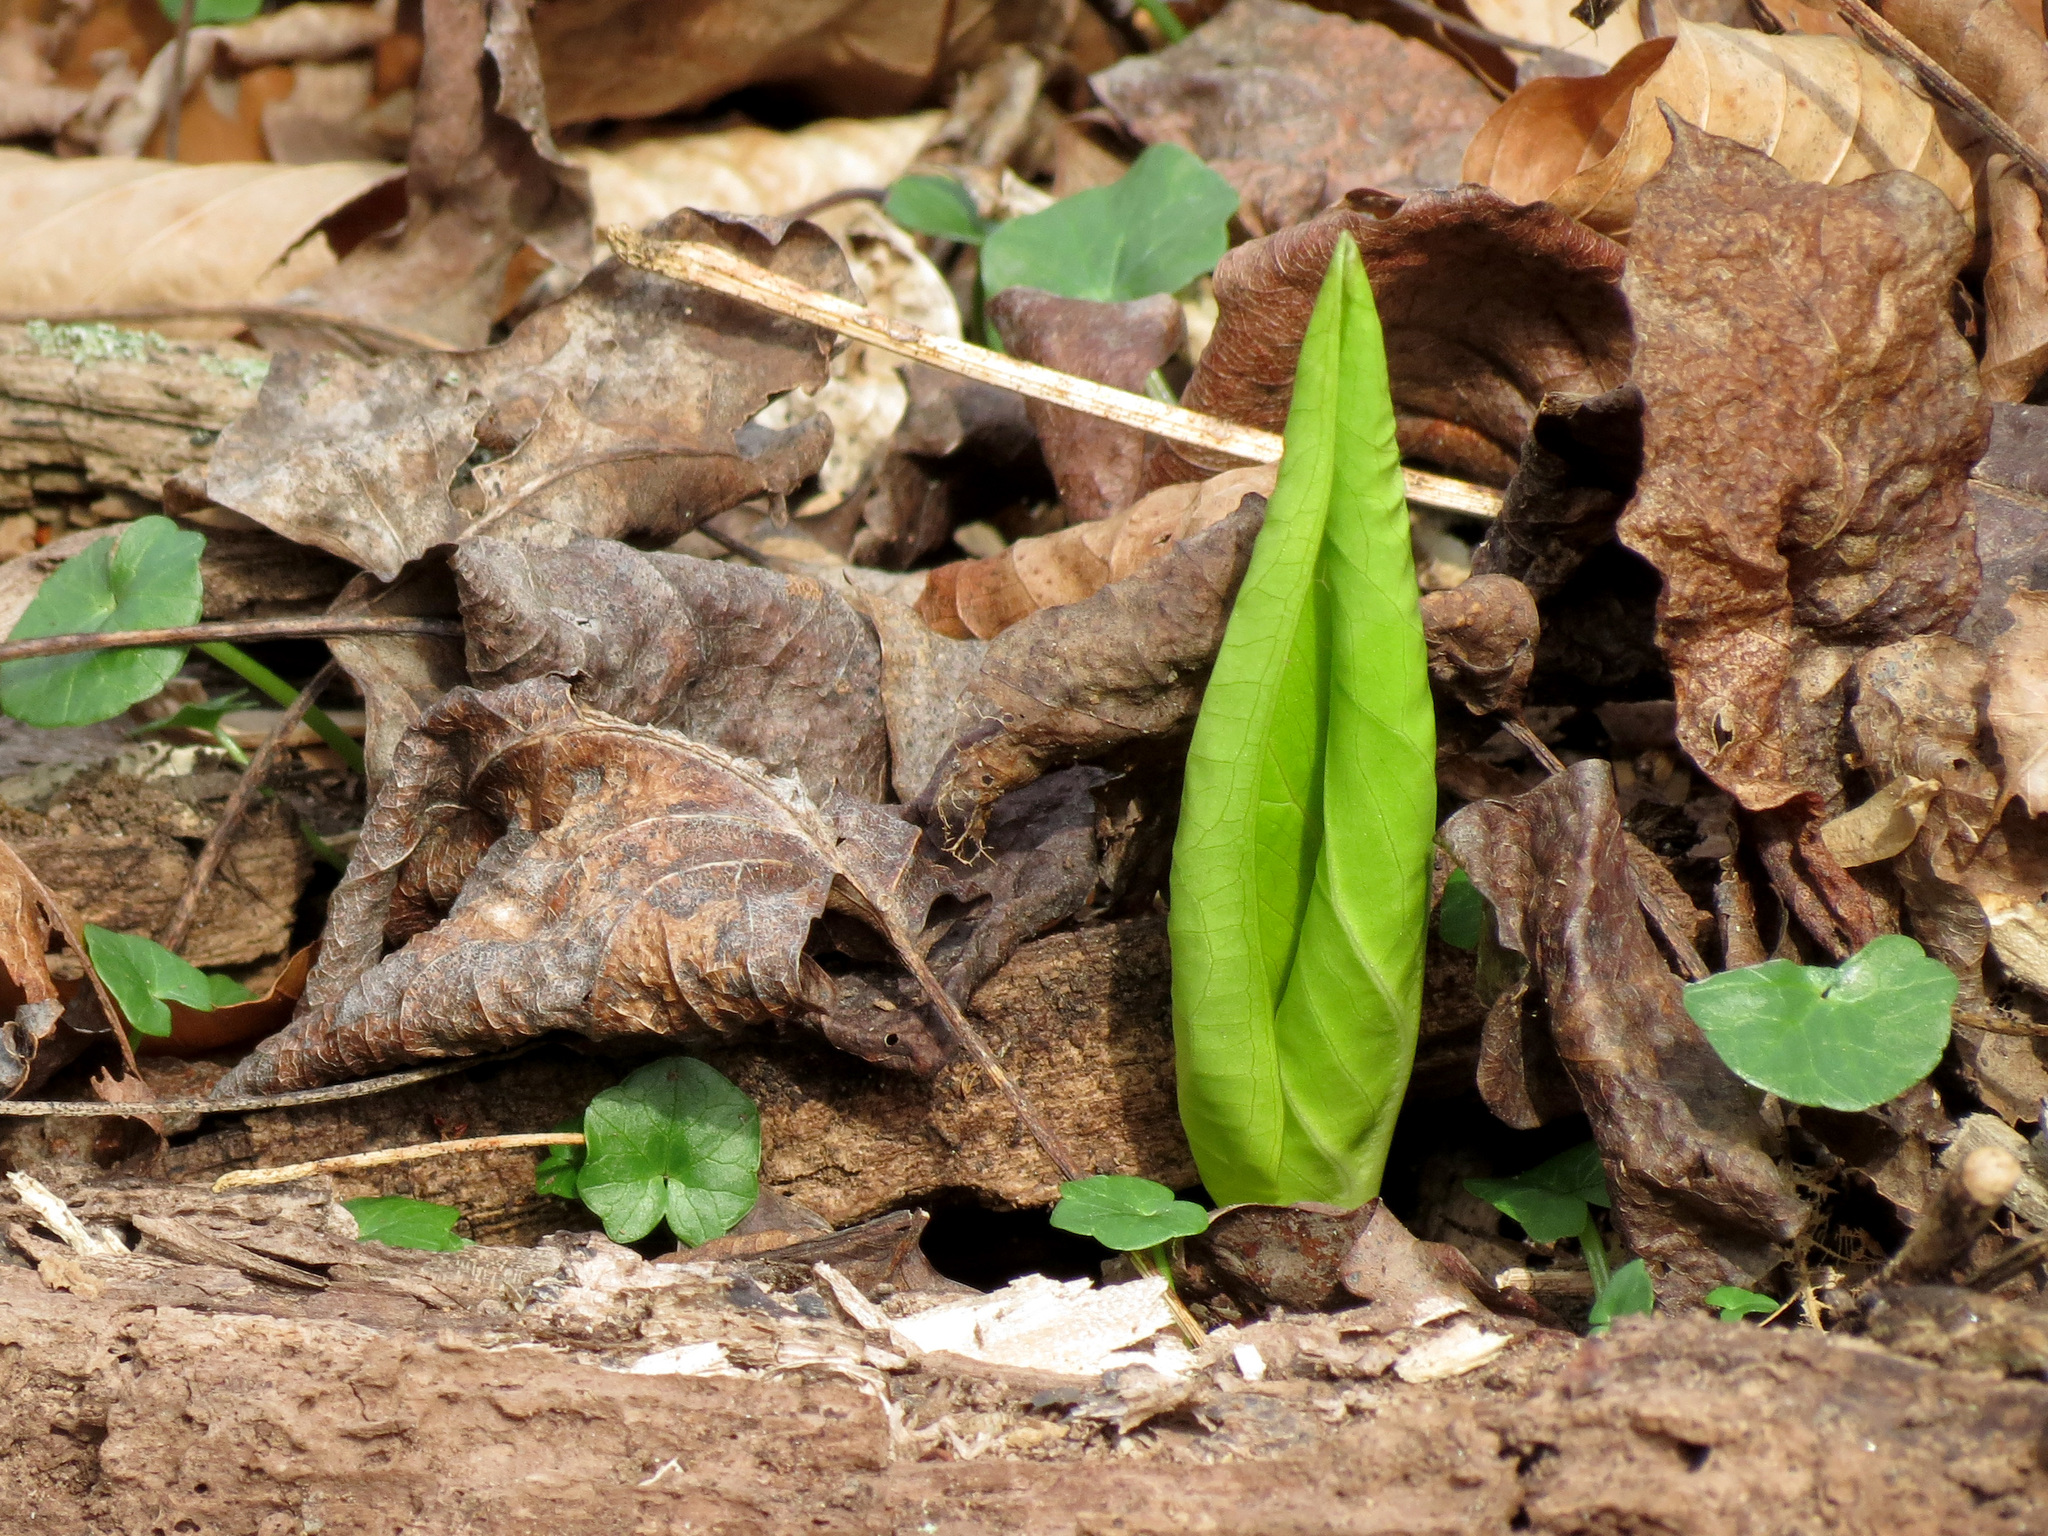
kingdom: Plantae
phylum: Tracheophyta
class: Liliopsida
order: Alismatales
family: Araceae
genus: Symplocarpus
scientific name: Symplocarpus foetidus
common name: Eastern skunk cabbage
